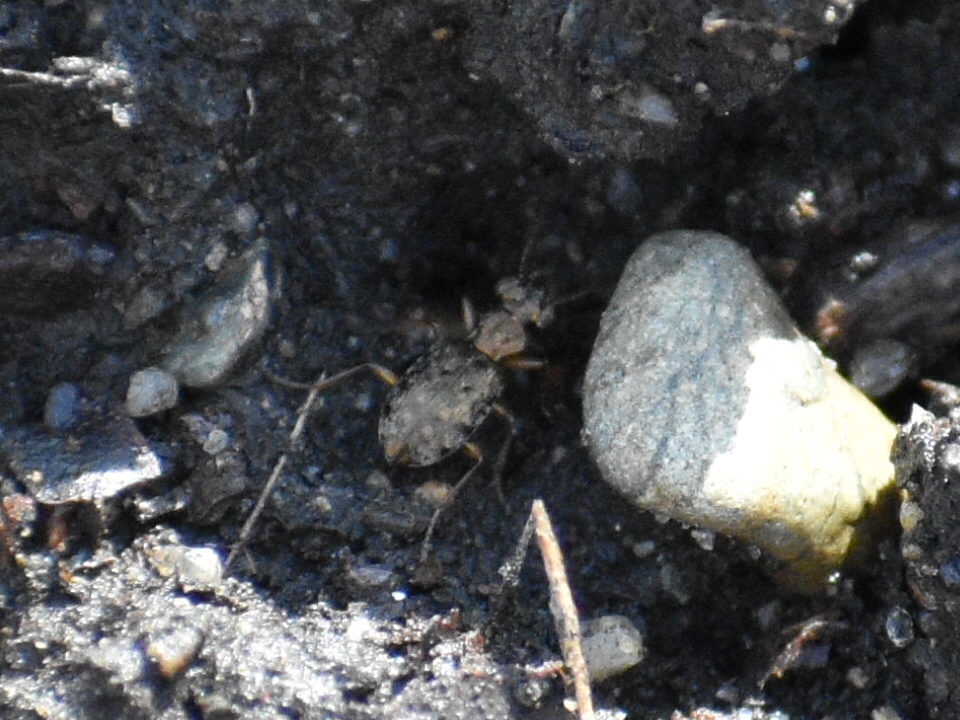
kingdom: Animalia
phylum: Arthropoda
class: Insecta
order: Coleoptera
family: Carabidae
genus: Asaphidion
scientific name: Asaphidion curtum
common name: Ground beetle
